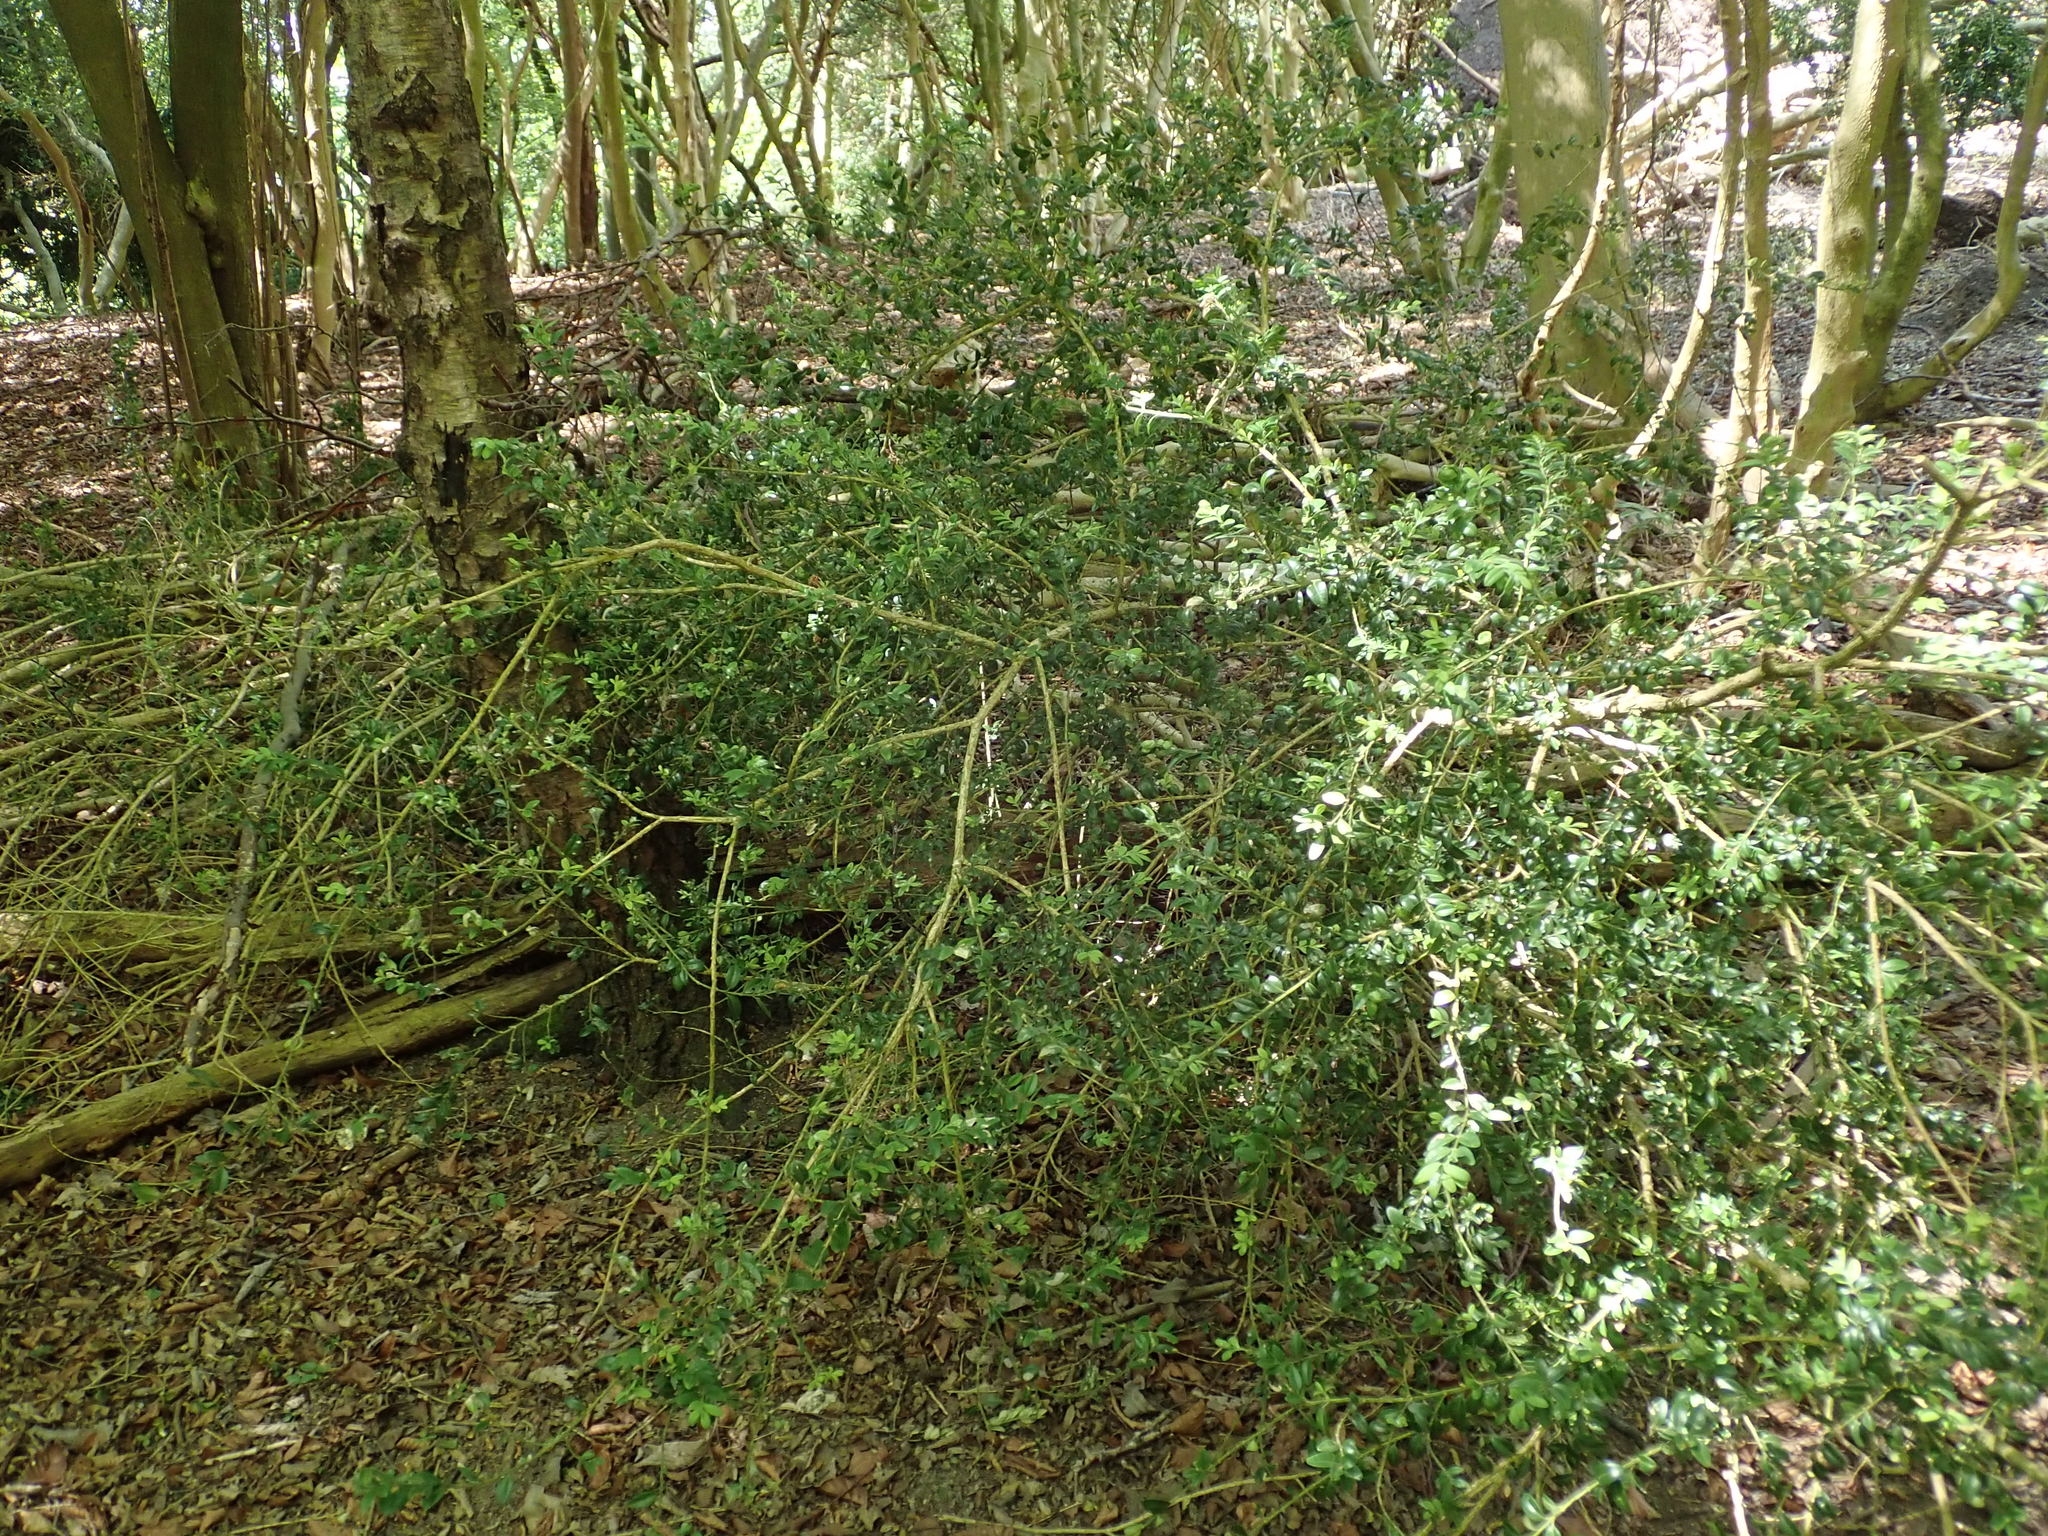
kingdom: Plantae
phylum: Tracheophyta
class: Magnoliopsida
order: Buxales
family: Buxaceae
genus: Buxus
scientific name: Buxus sempervirens
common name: Box
